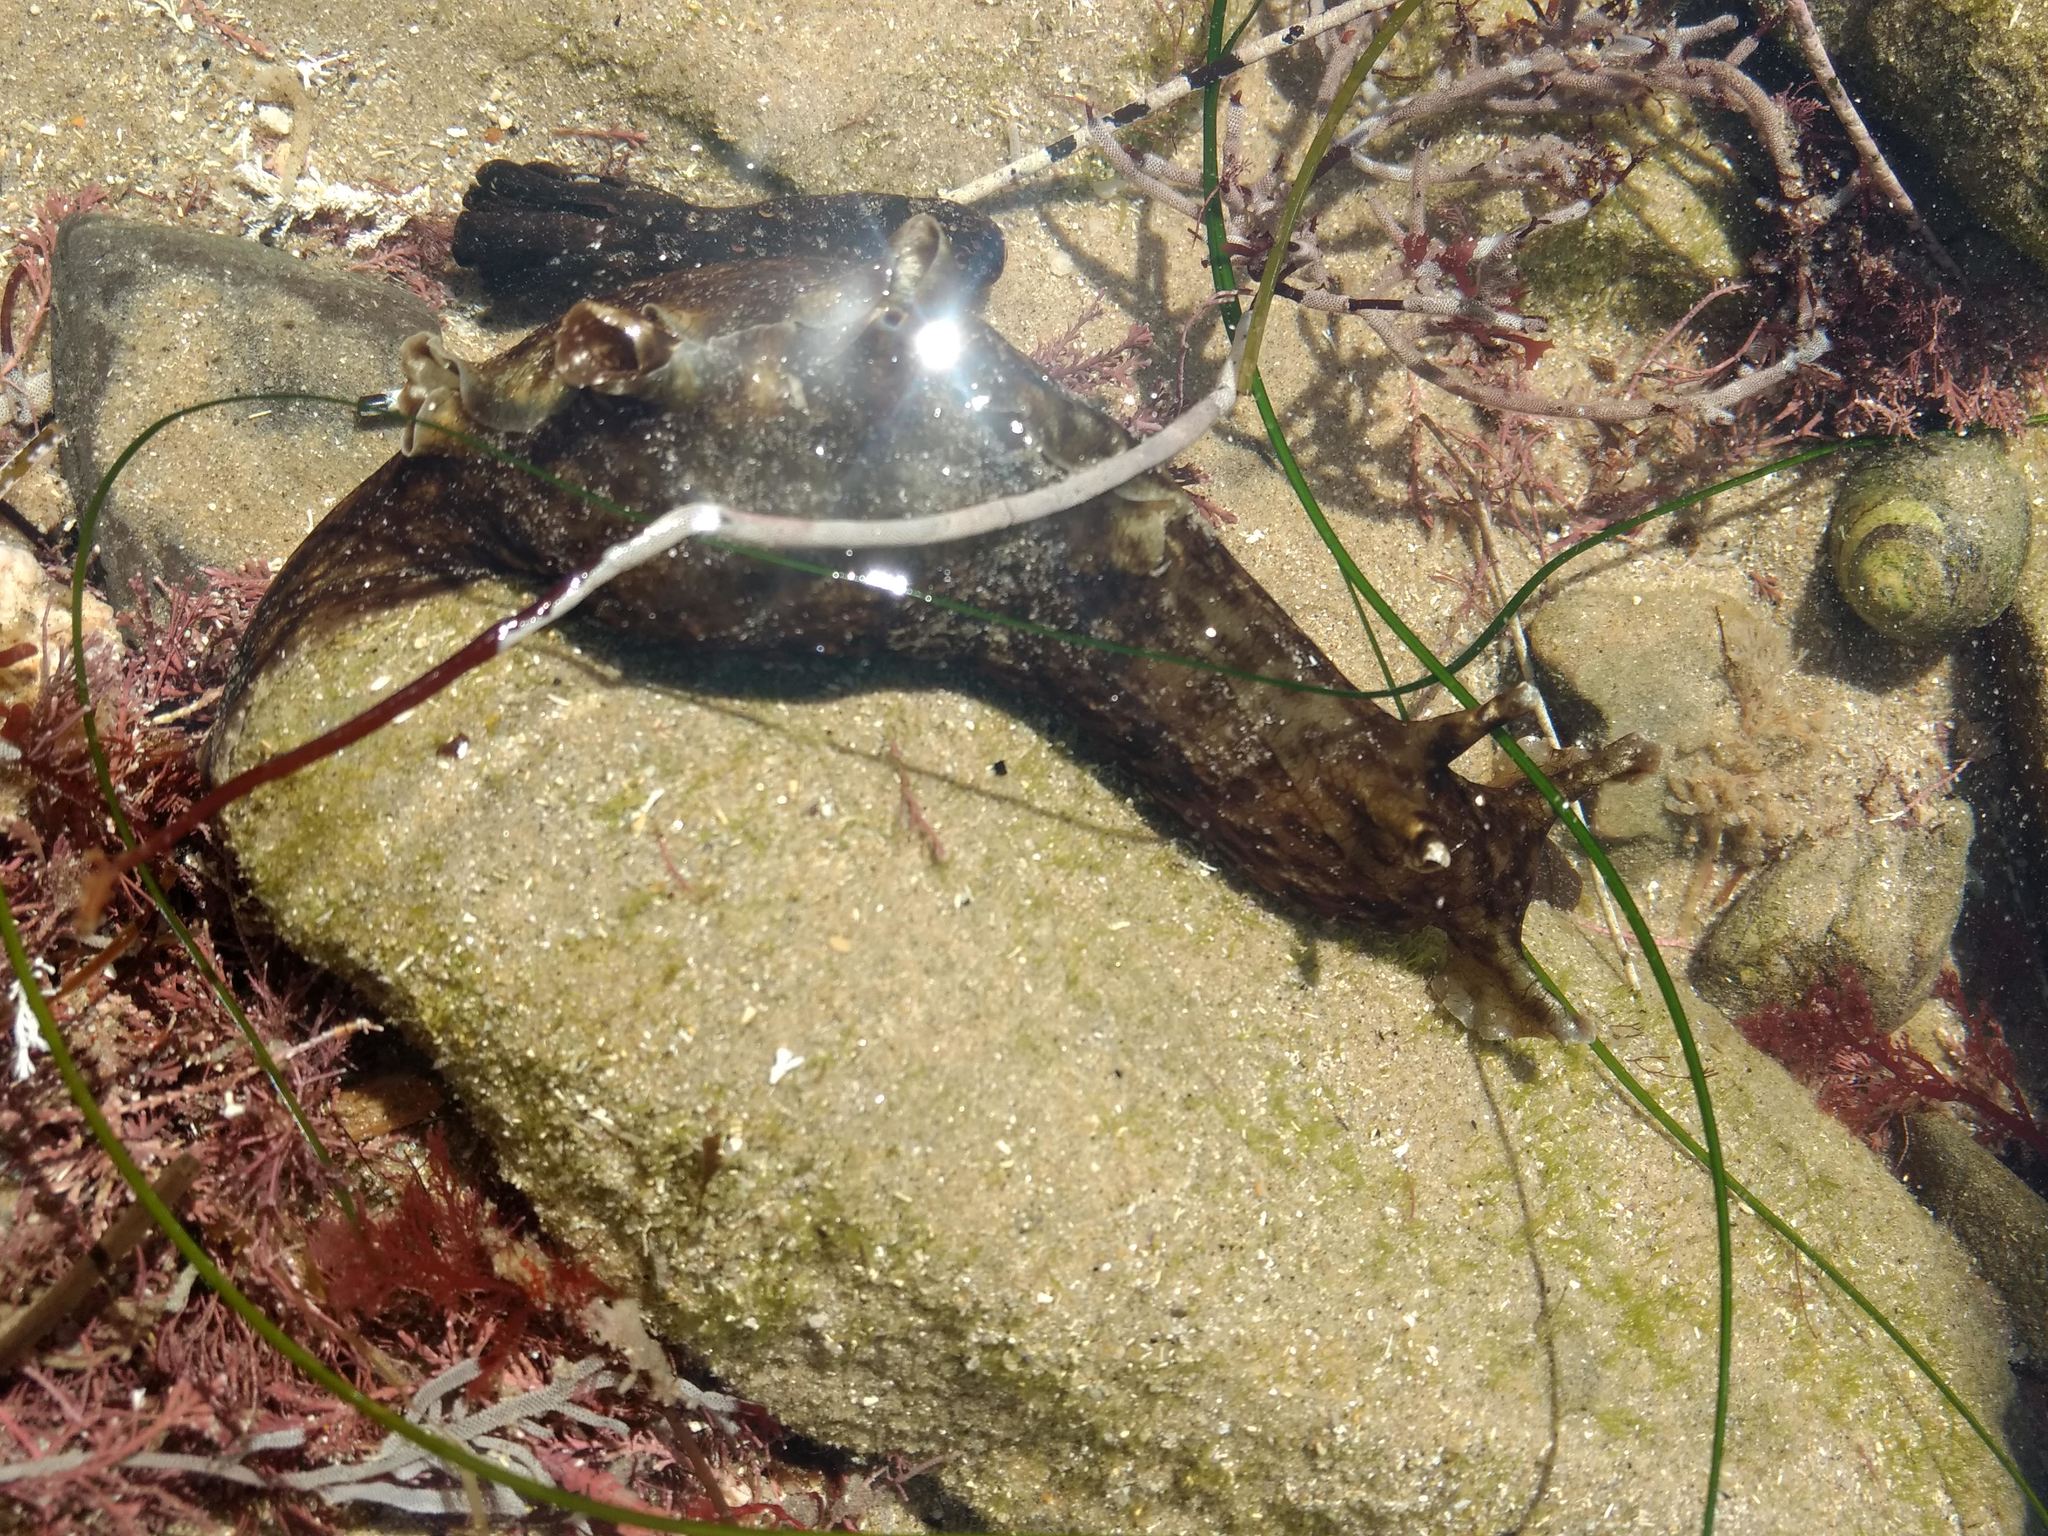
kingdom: Animalia
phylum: Mollusca
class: Gastropoda
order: Aplysiida
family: Aplysiidae
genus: Aplysia
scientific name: Aplysia californica
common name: California seahare
